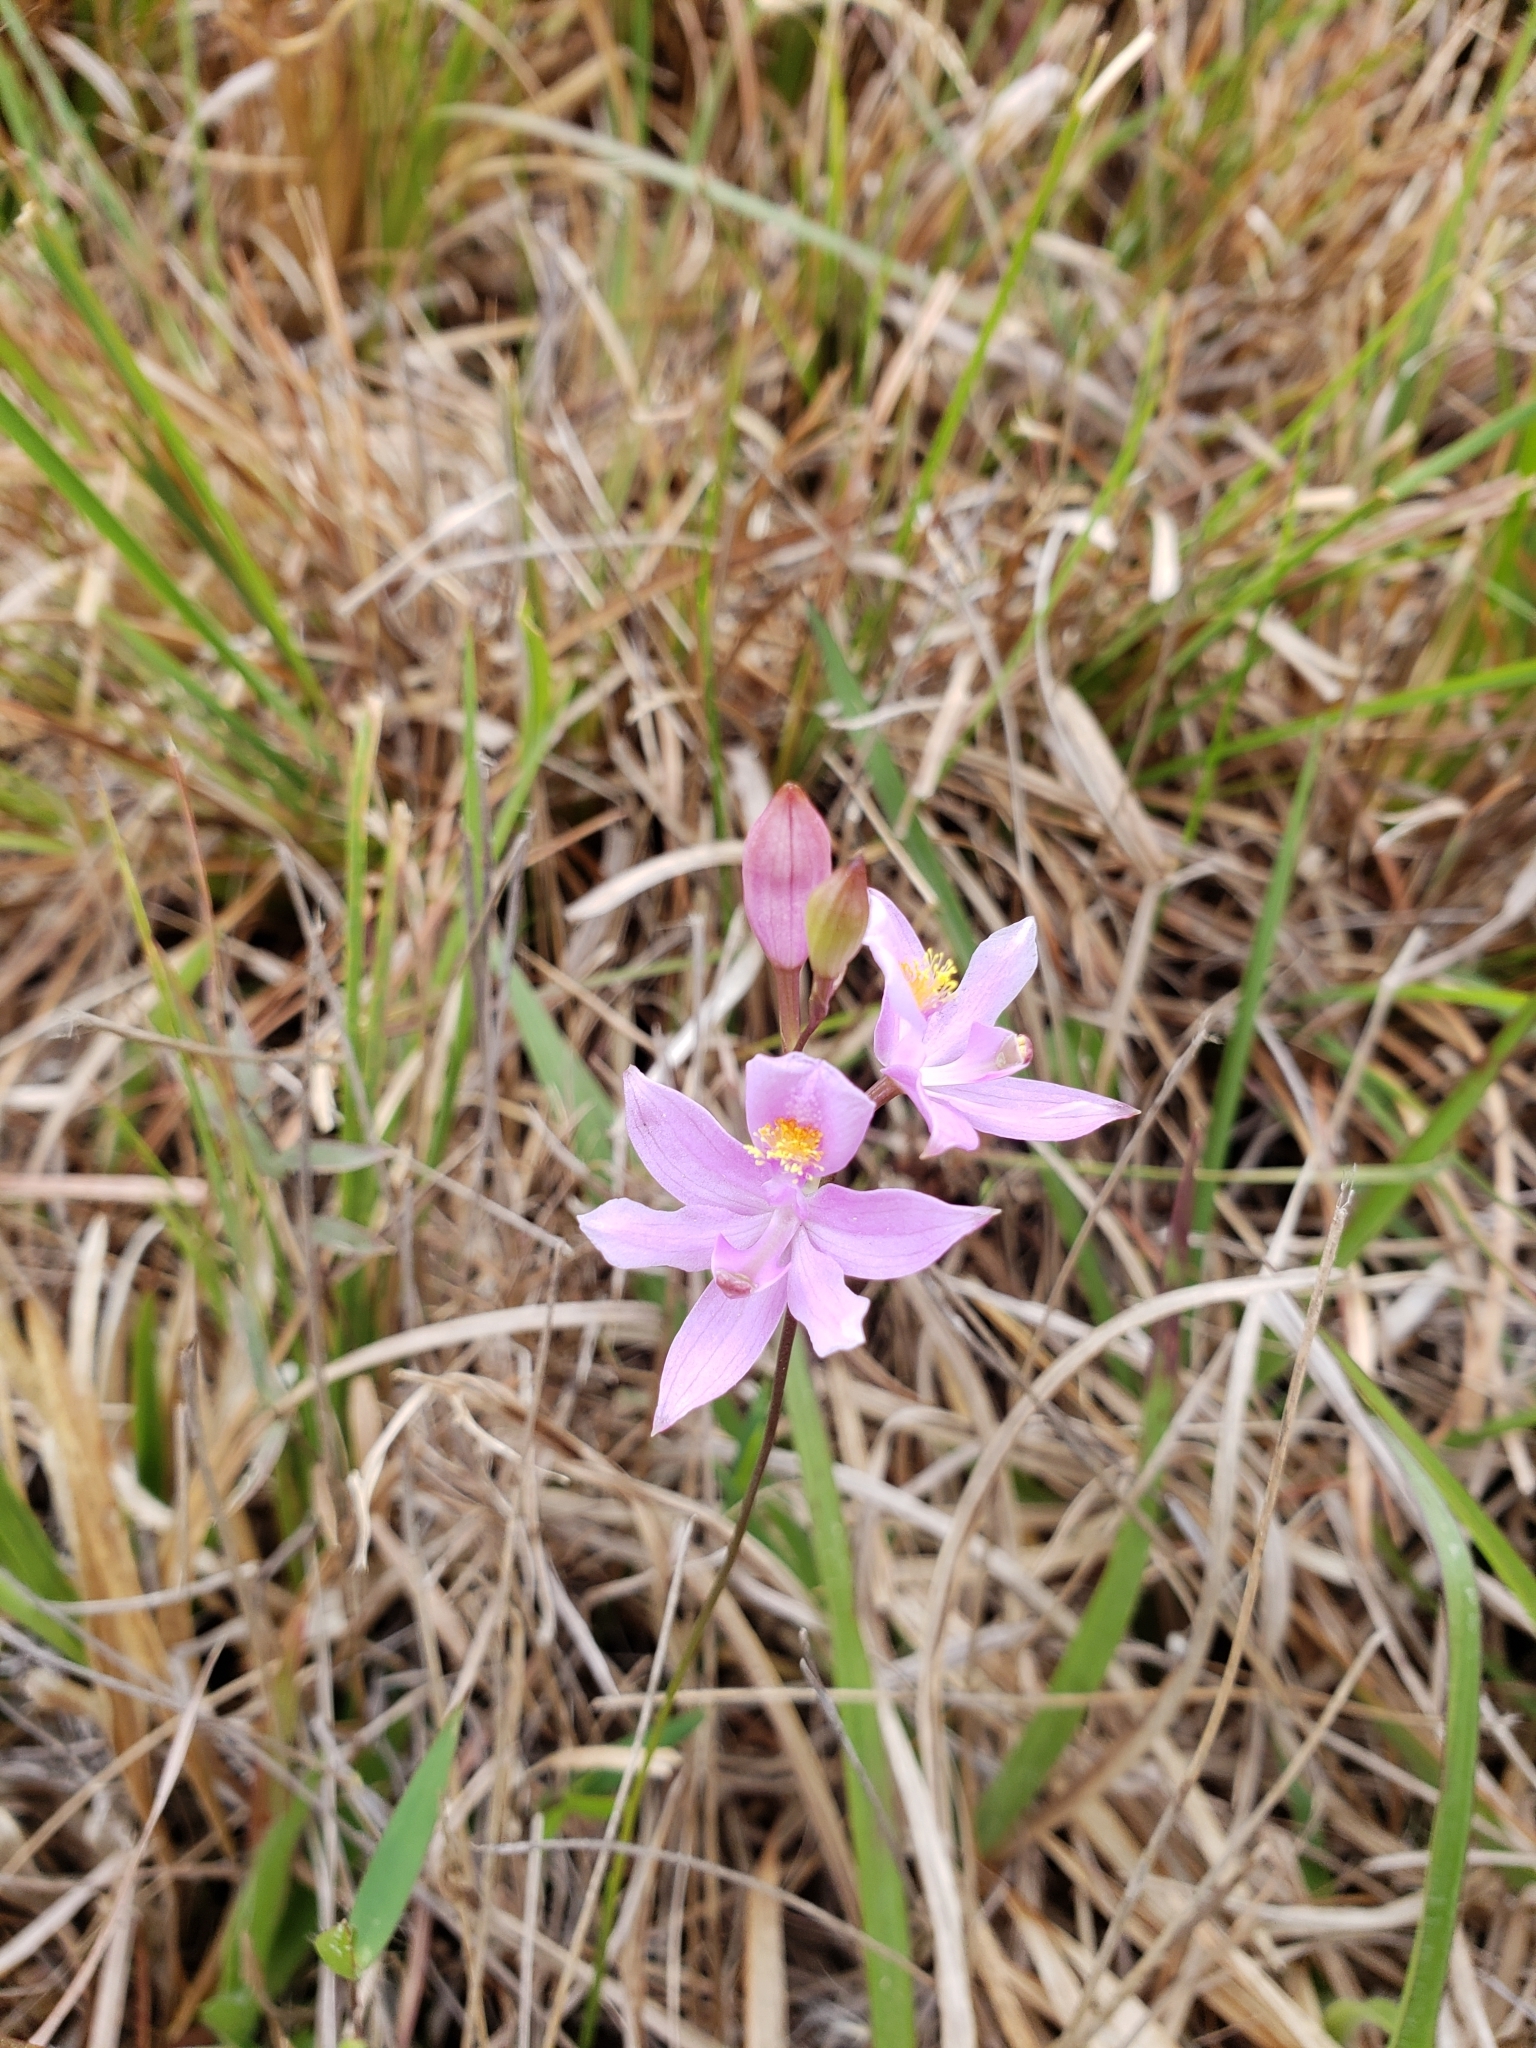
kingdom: Plantae
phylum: Tracheophyta
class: Liliopsida
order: Asparagales
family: Orchidaceae
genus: Calopogon
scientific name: Calopogon barbatus
